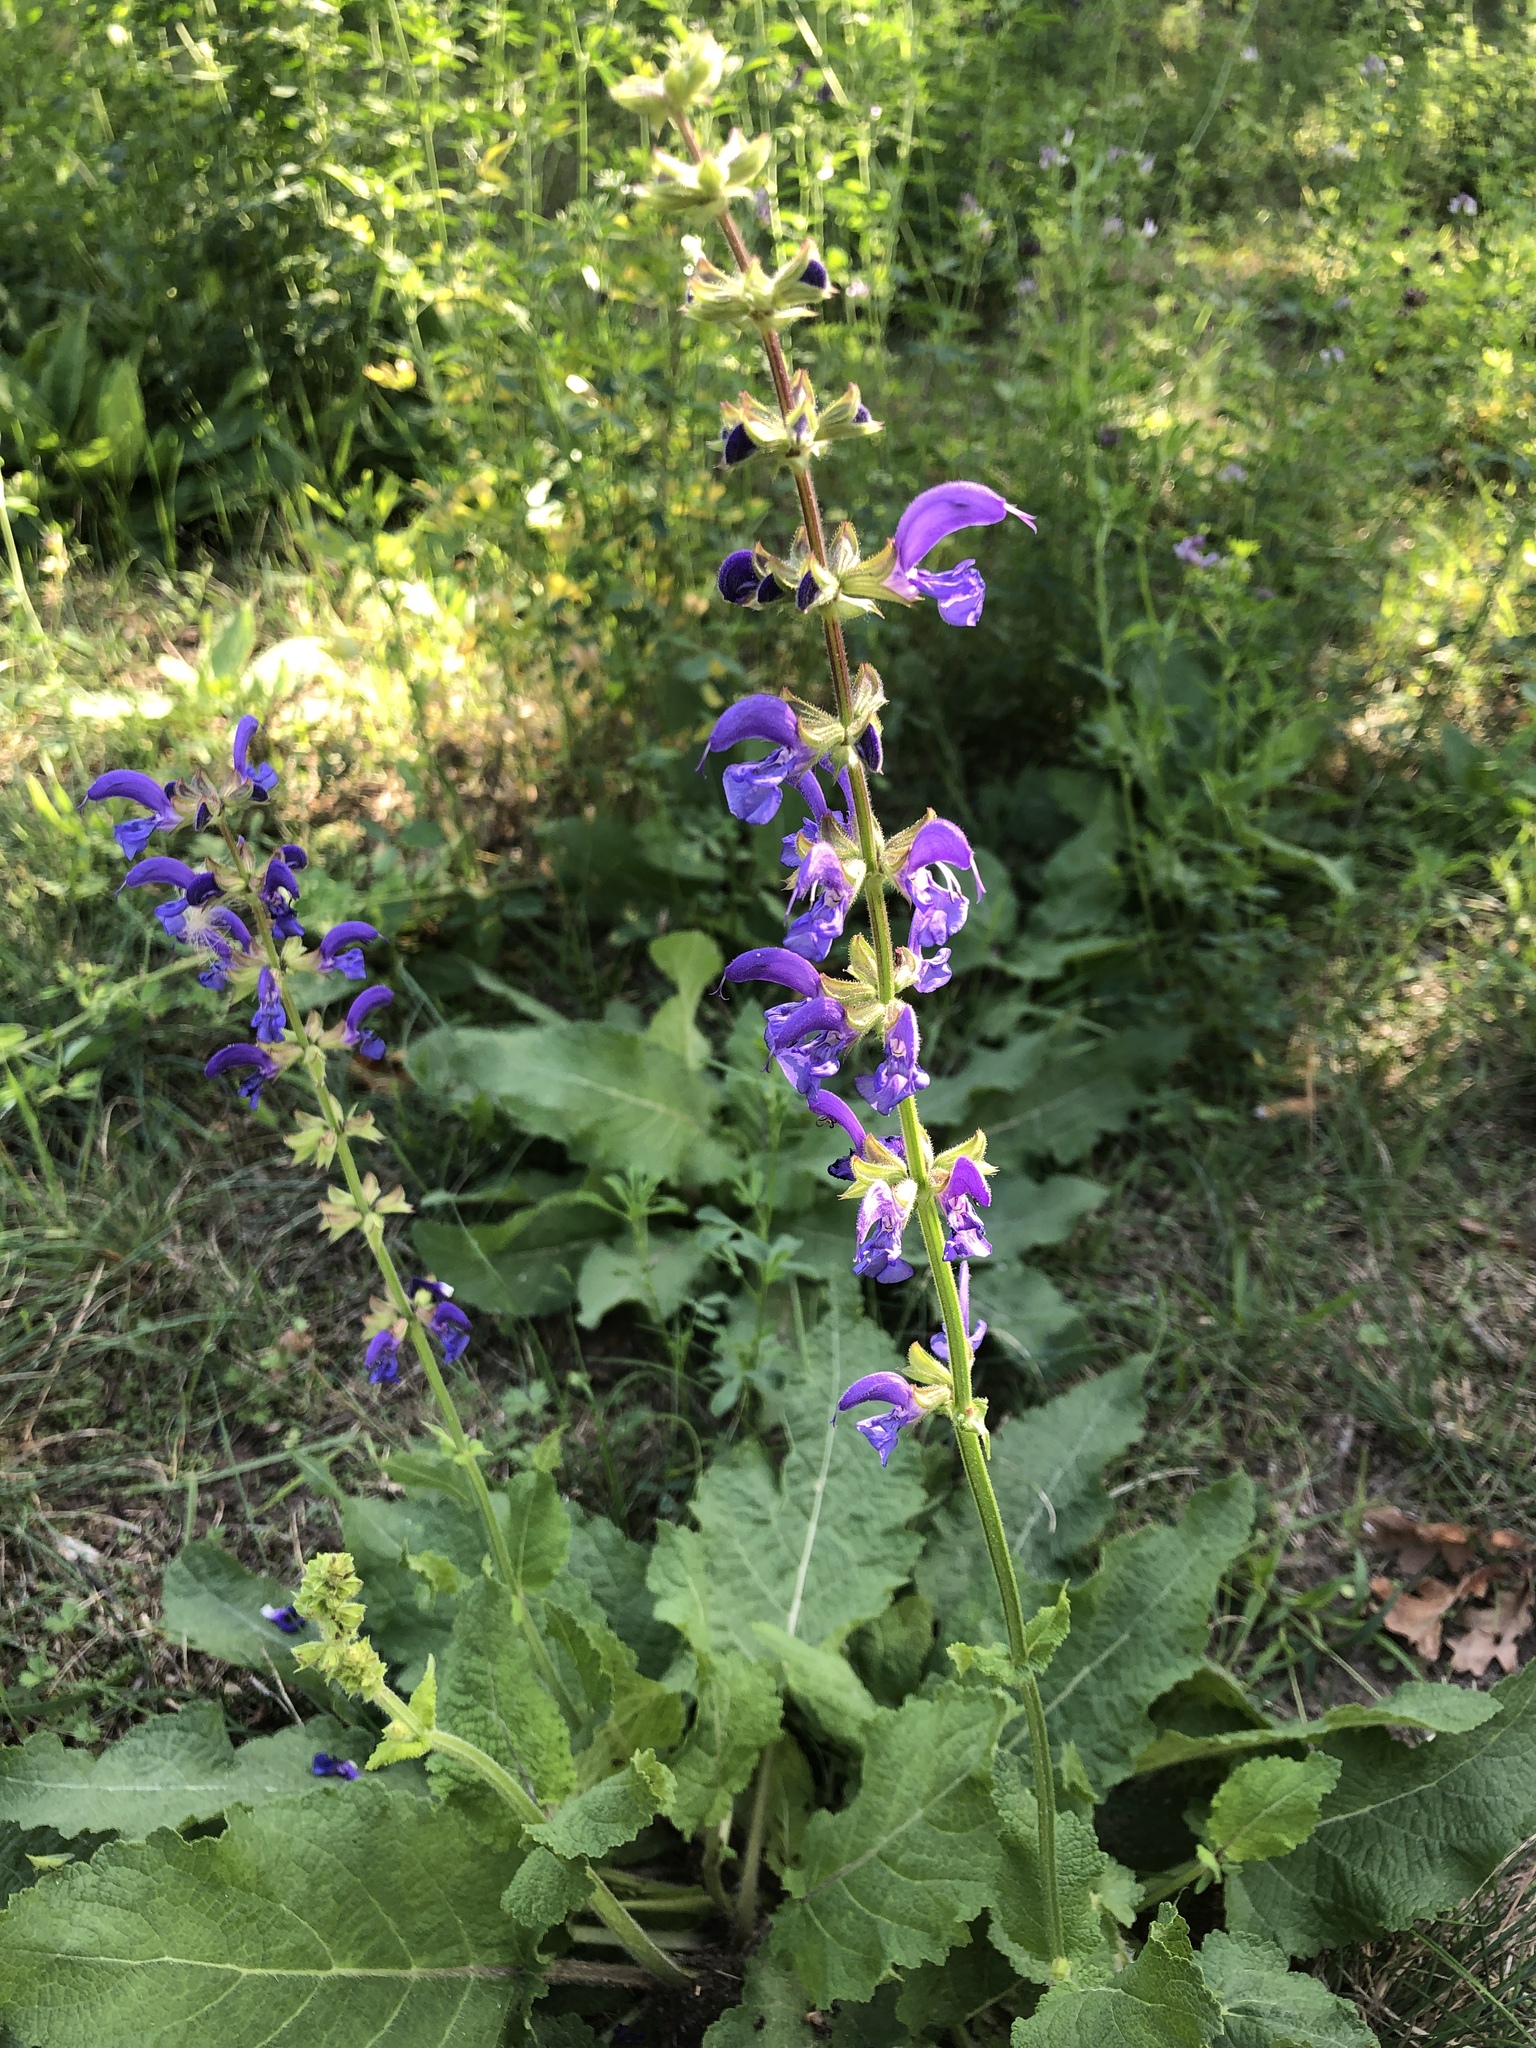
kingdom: Plantae
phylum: Tracheophyta
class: Magnoliopsida
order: Lamiales
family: Lamiaceae
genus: Salvia
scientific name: Salvia pratensis
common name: Meadow sage
